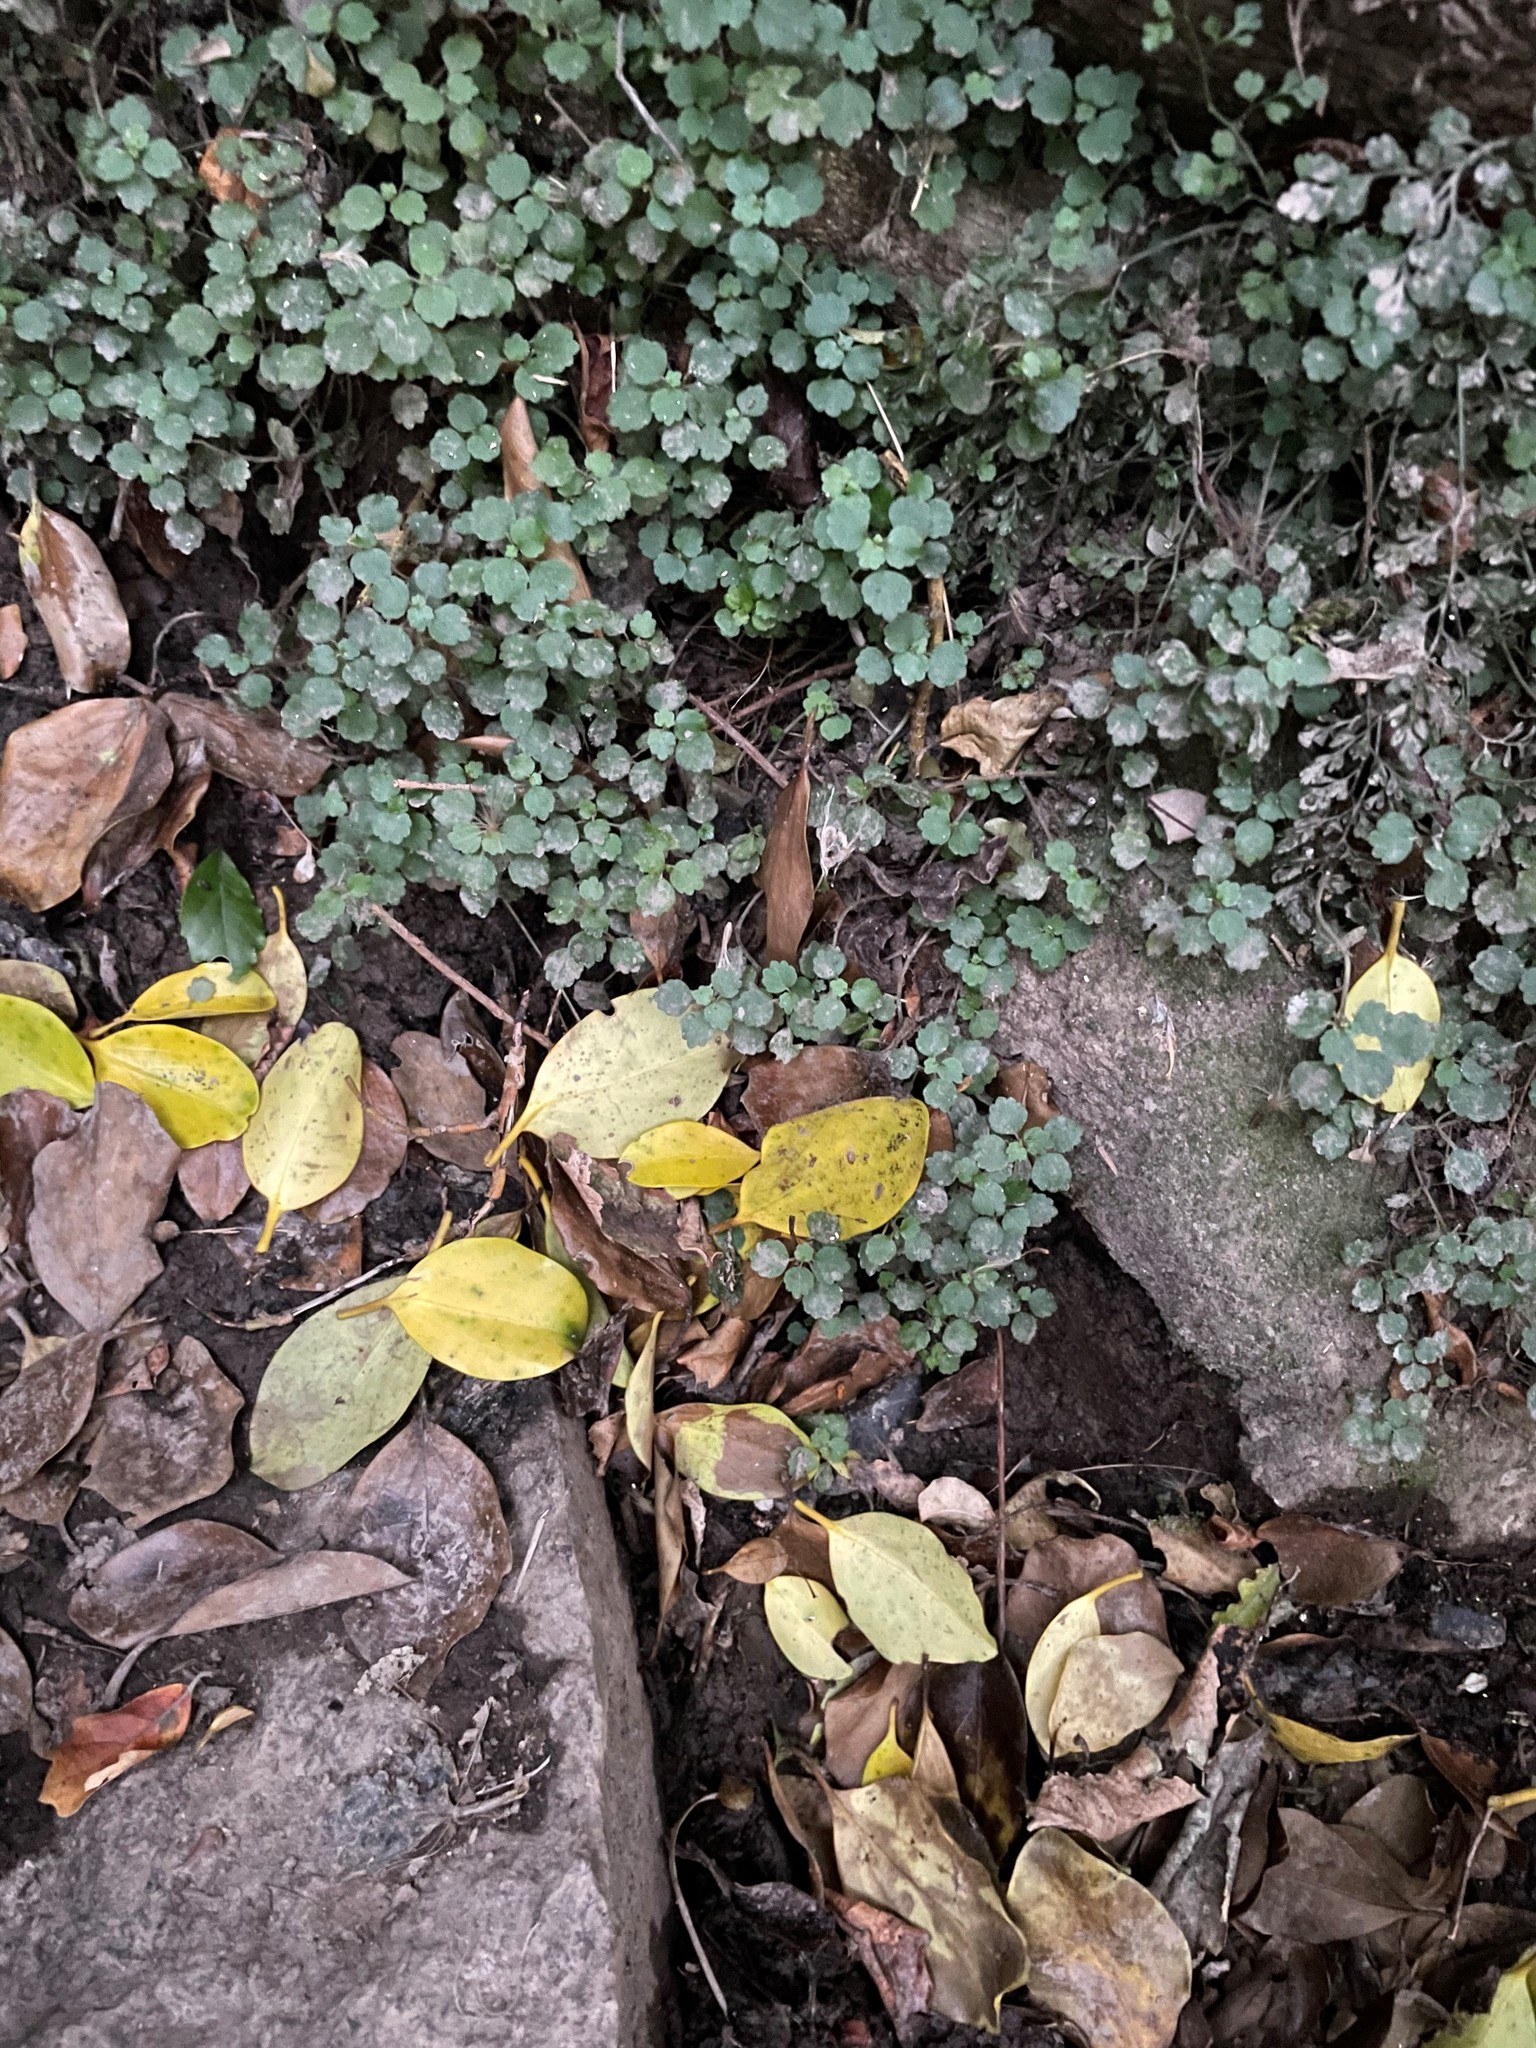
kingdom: Plantae
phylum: Tracheophyta
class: Magnoliopsida
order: Rosales
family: Urticaceae
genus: Australina
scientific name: Australina pusilla
